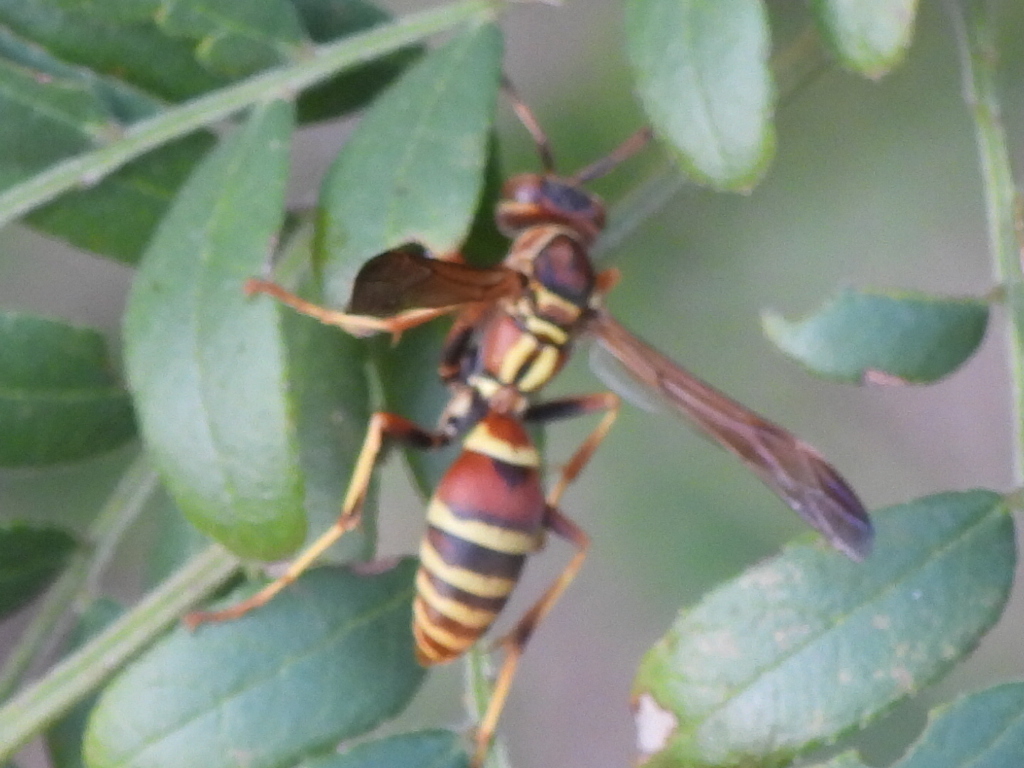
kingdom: Animalia
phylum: Arthropoda
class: Insecta
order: Hymenoptera
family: Eumenidae
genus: Polistes
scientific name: Polistes dorsalis
